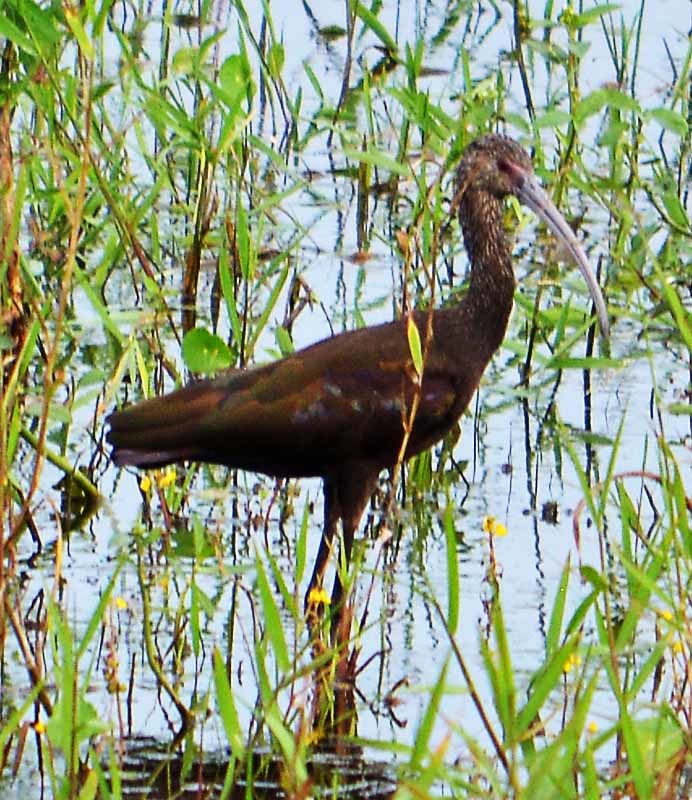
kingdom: Animalia
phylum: Chordata
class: Aves
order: Pelecaniformes
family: Threskiornithidae
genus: Plegadis
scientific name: Plegadis chihi
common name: White-faced ibis
